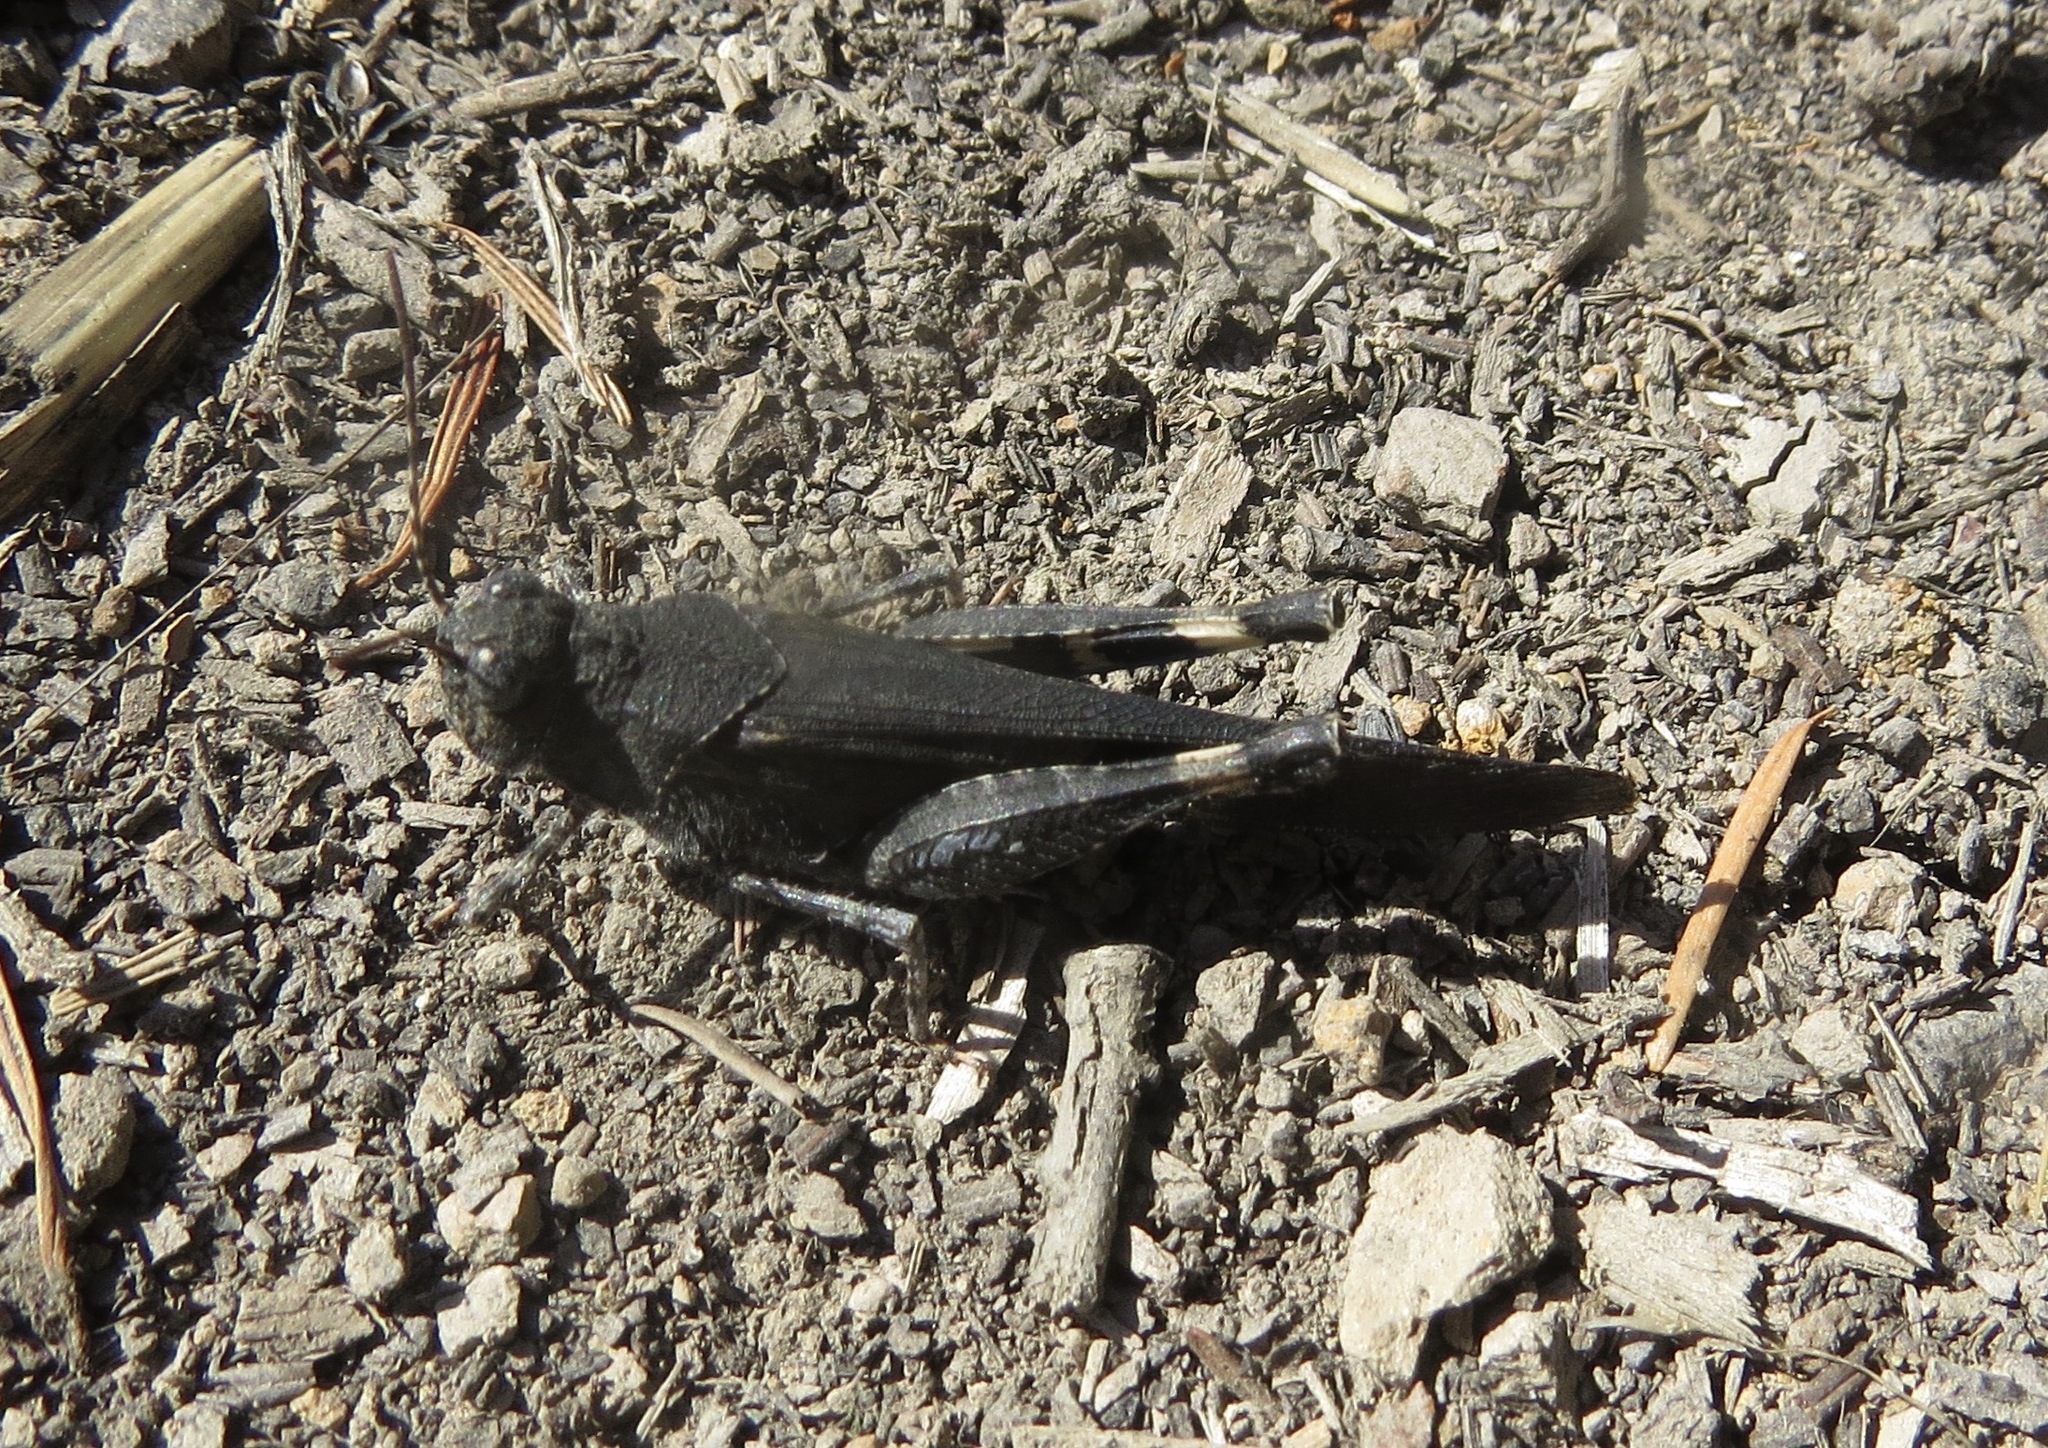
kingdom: Animalia
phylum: Arthropoda
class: Insecta
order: Orthoptera
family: Acrididae
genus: Trimerotropis
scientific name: Trimerotropis fontana
